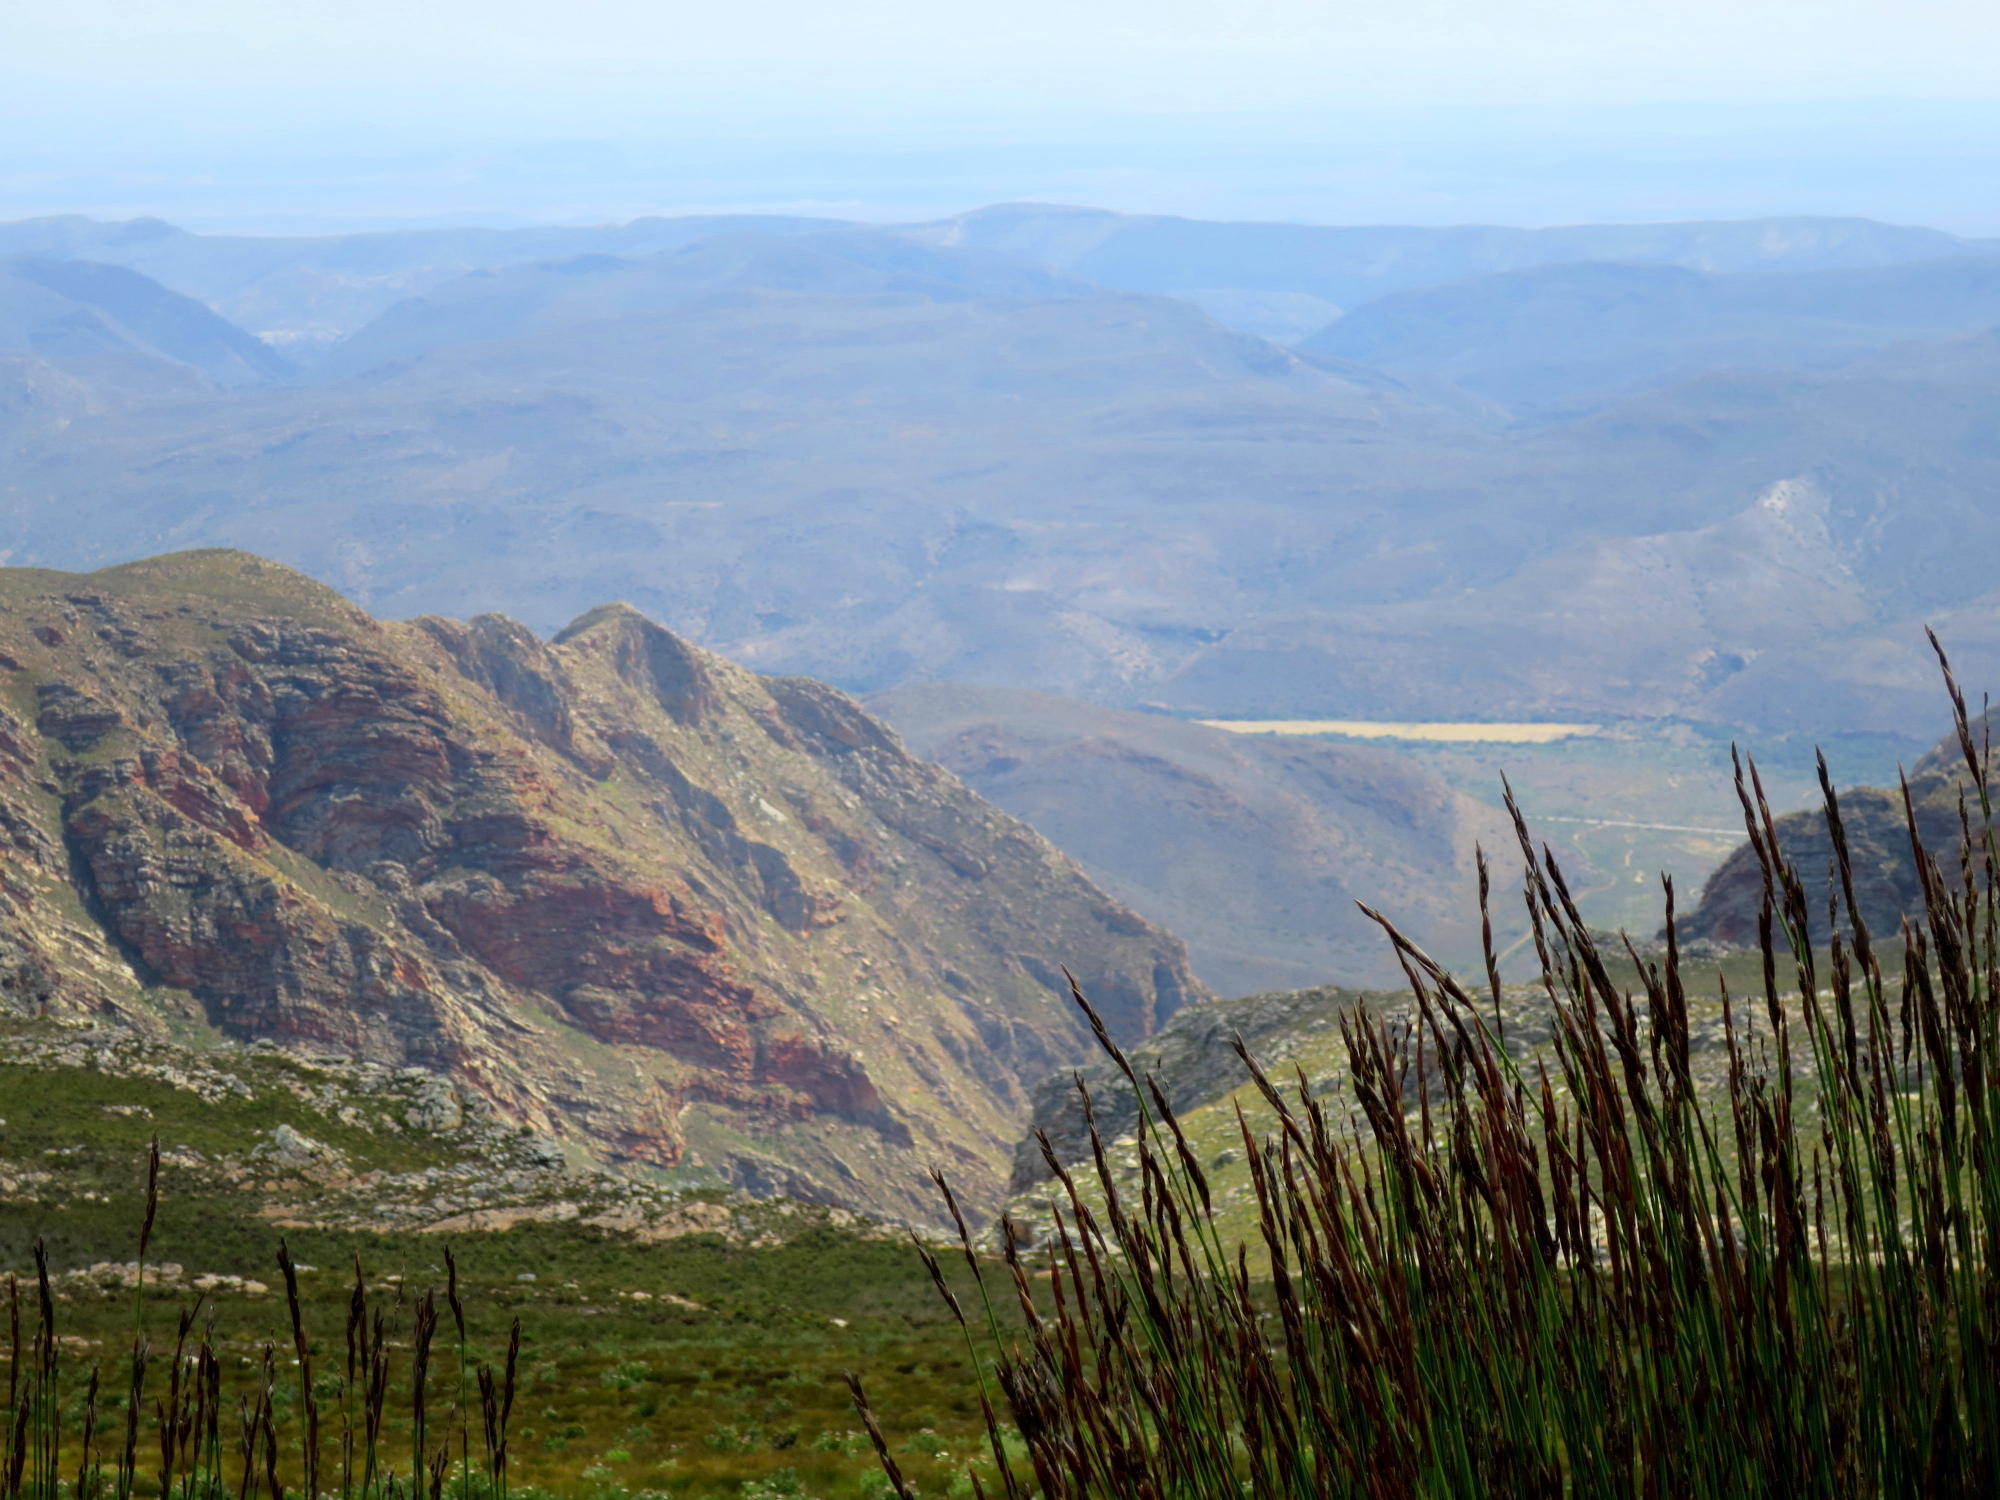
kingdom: Plantae
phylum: Tracheophyta
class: Liliopsida
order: Poales
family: Restionaceae
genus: Cannomois
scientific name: Cannomois scirpoides
